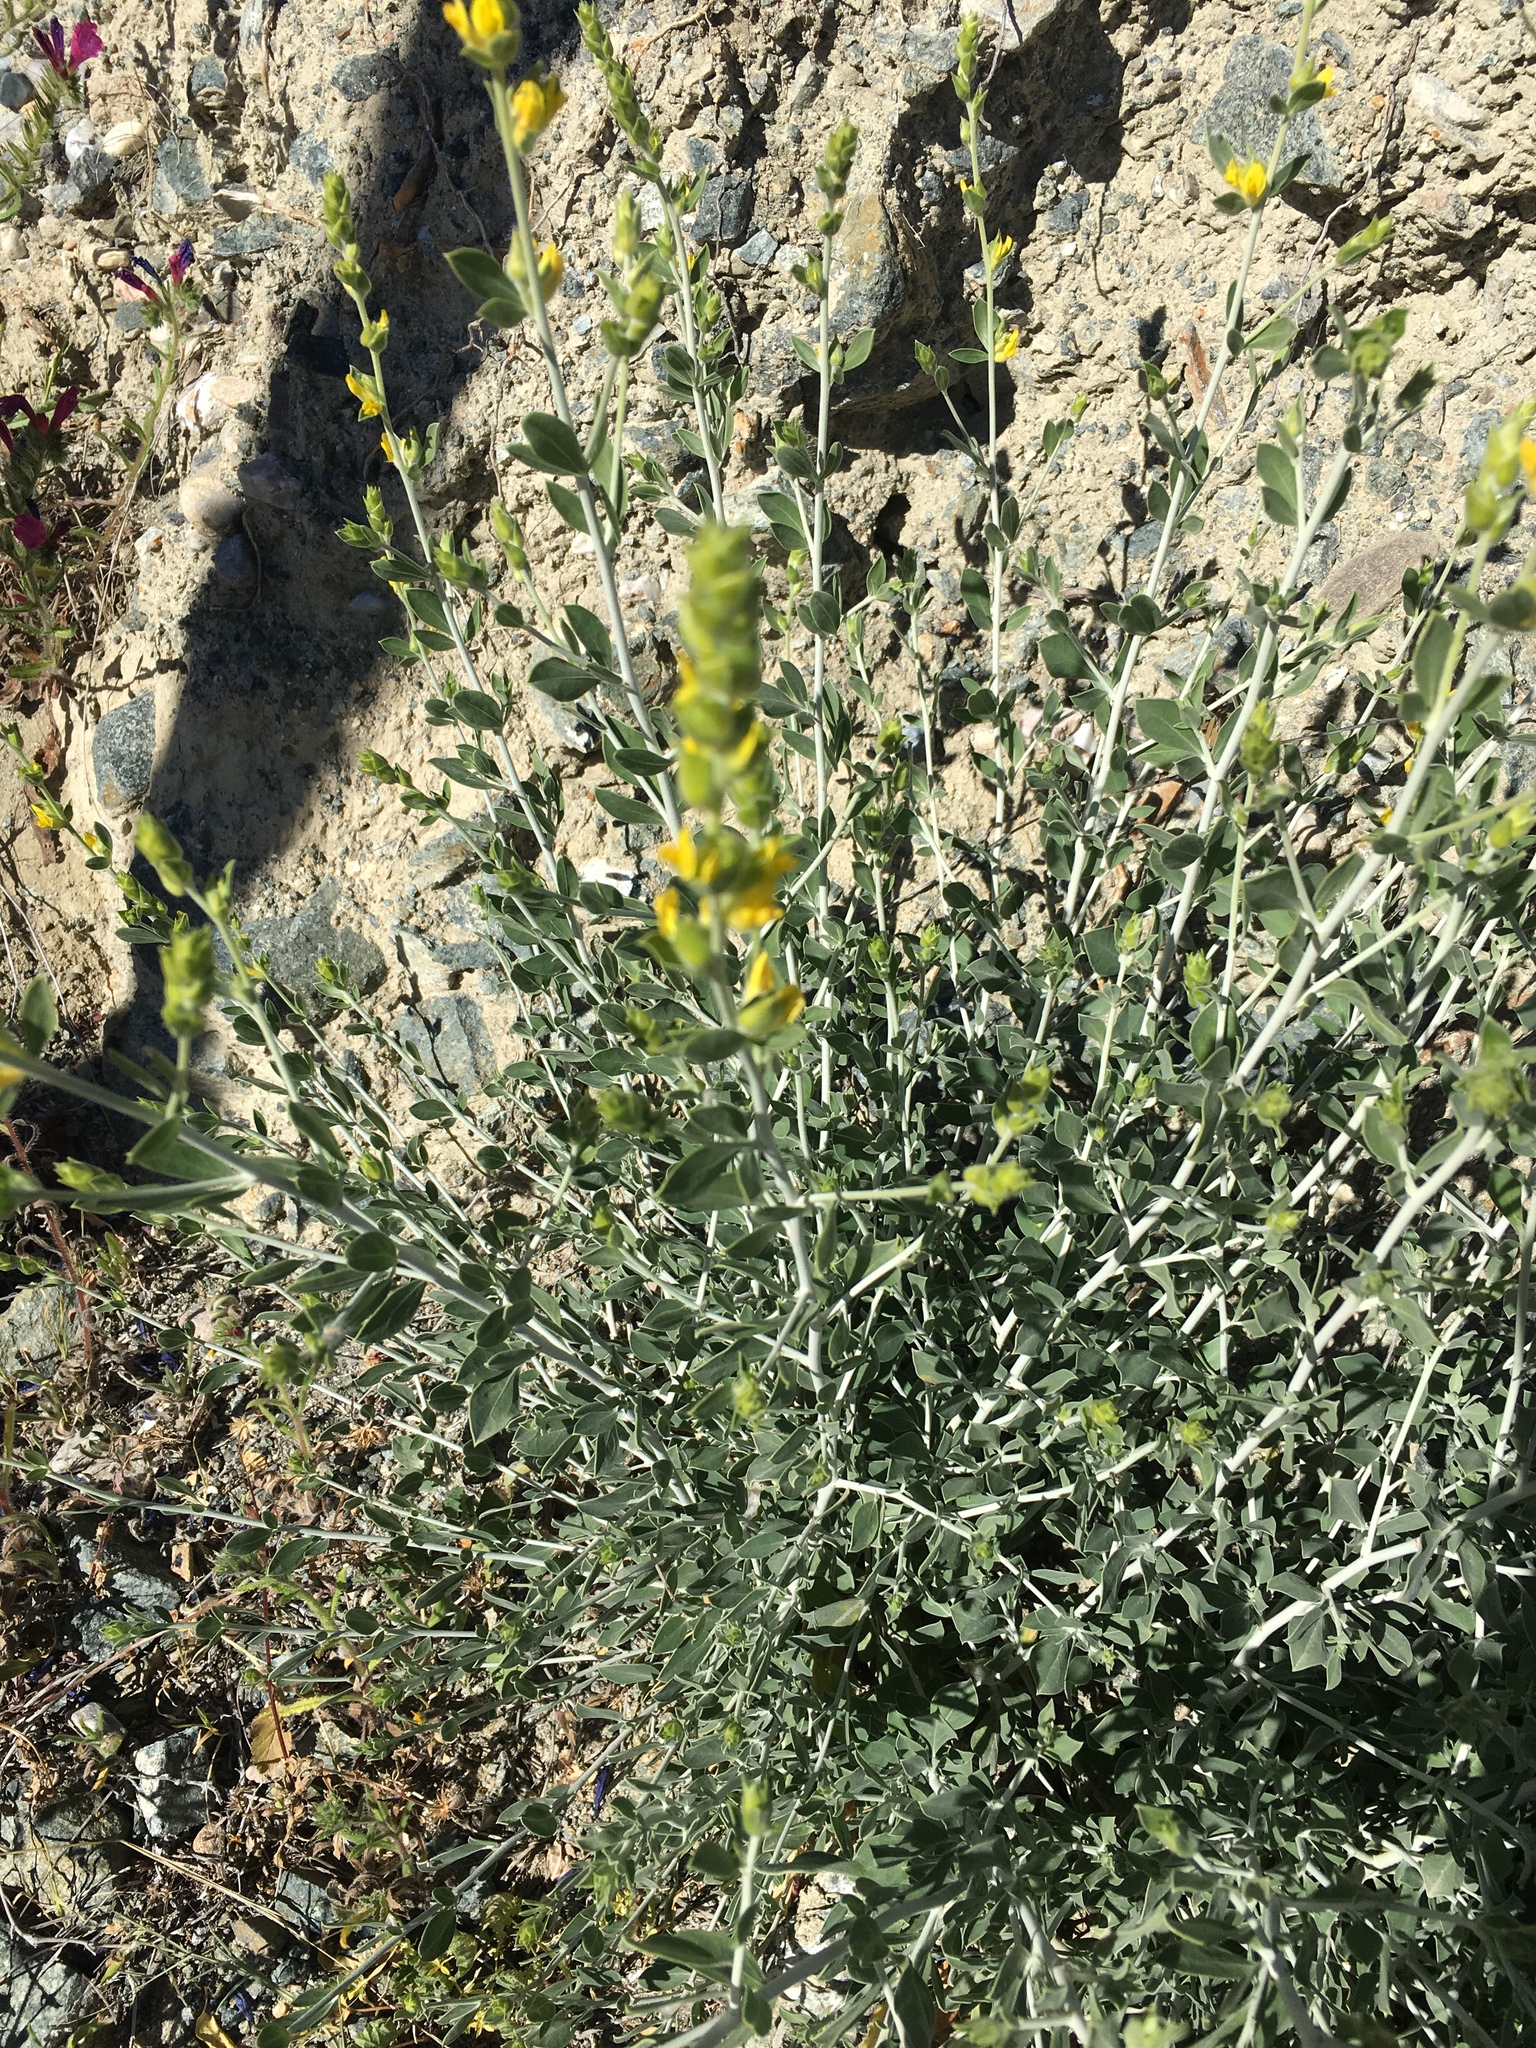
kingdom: Plantae
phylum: Tracheophyta
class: Magnoliopsida
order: Fabales
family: Fabaceae
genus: Anthyllis
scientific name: Anthyllis cytisoides
